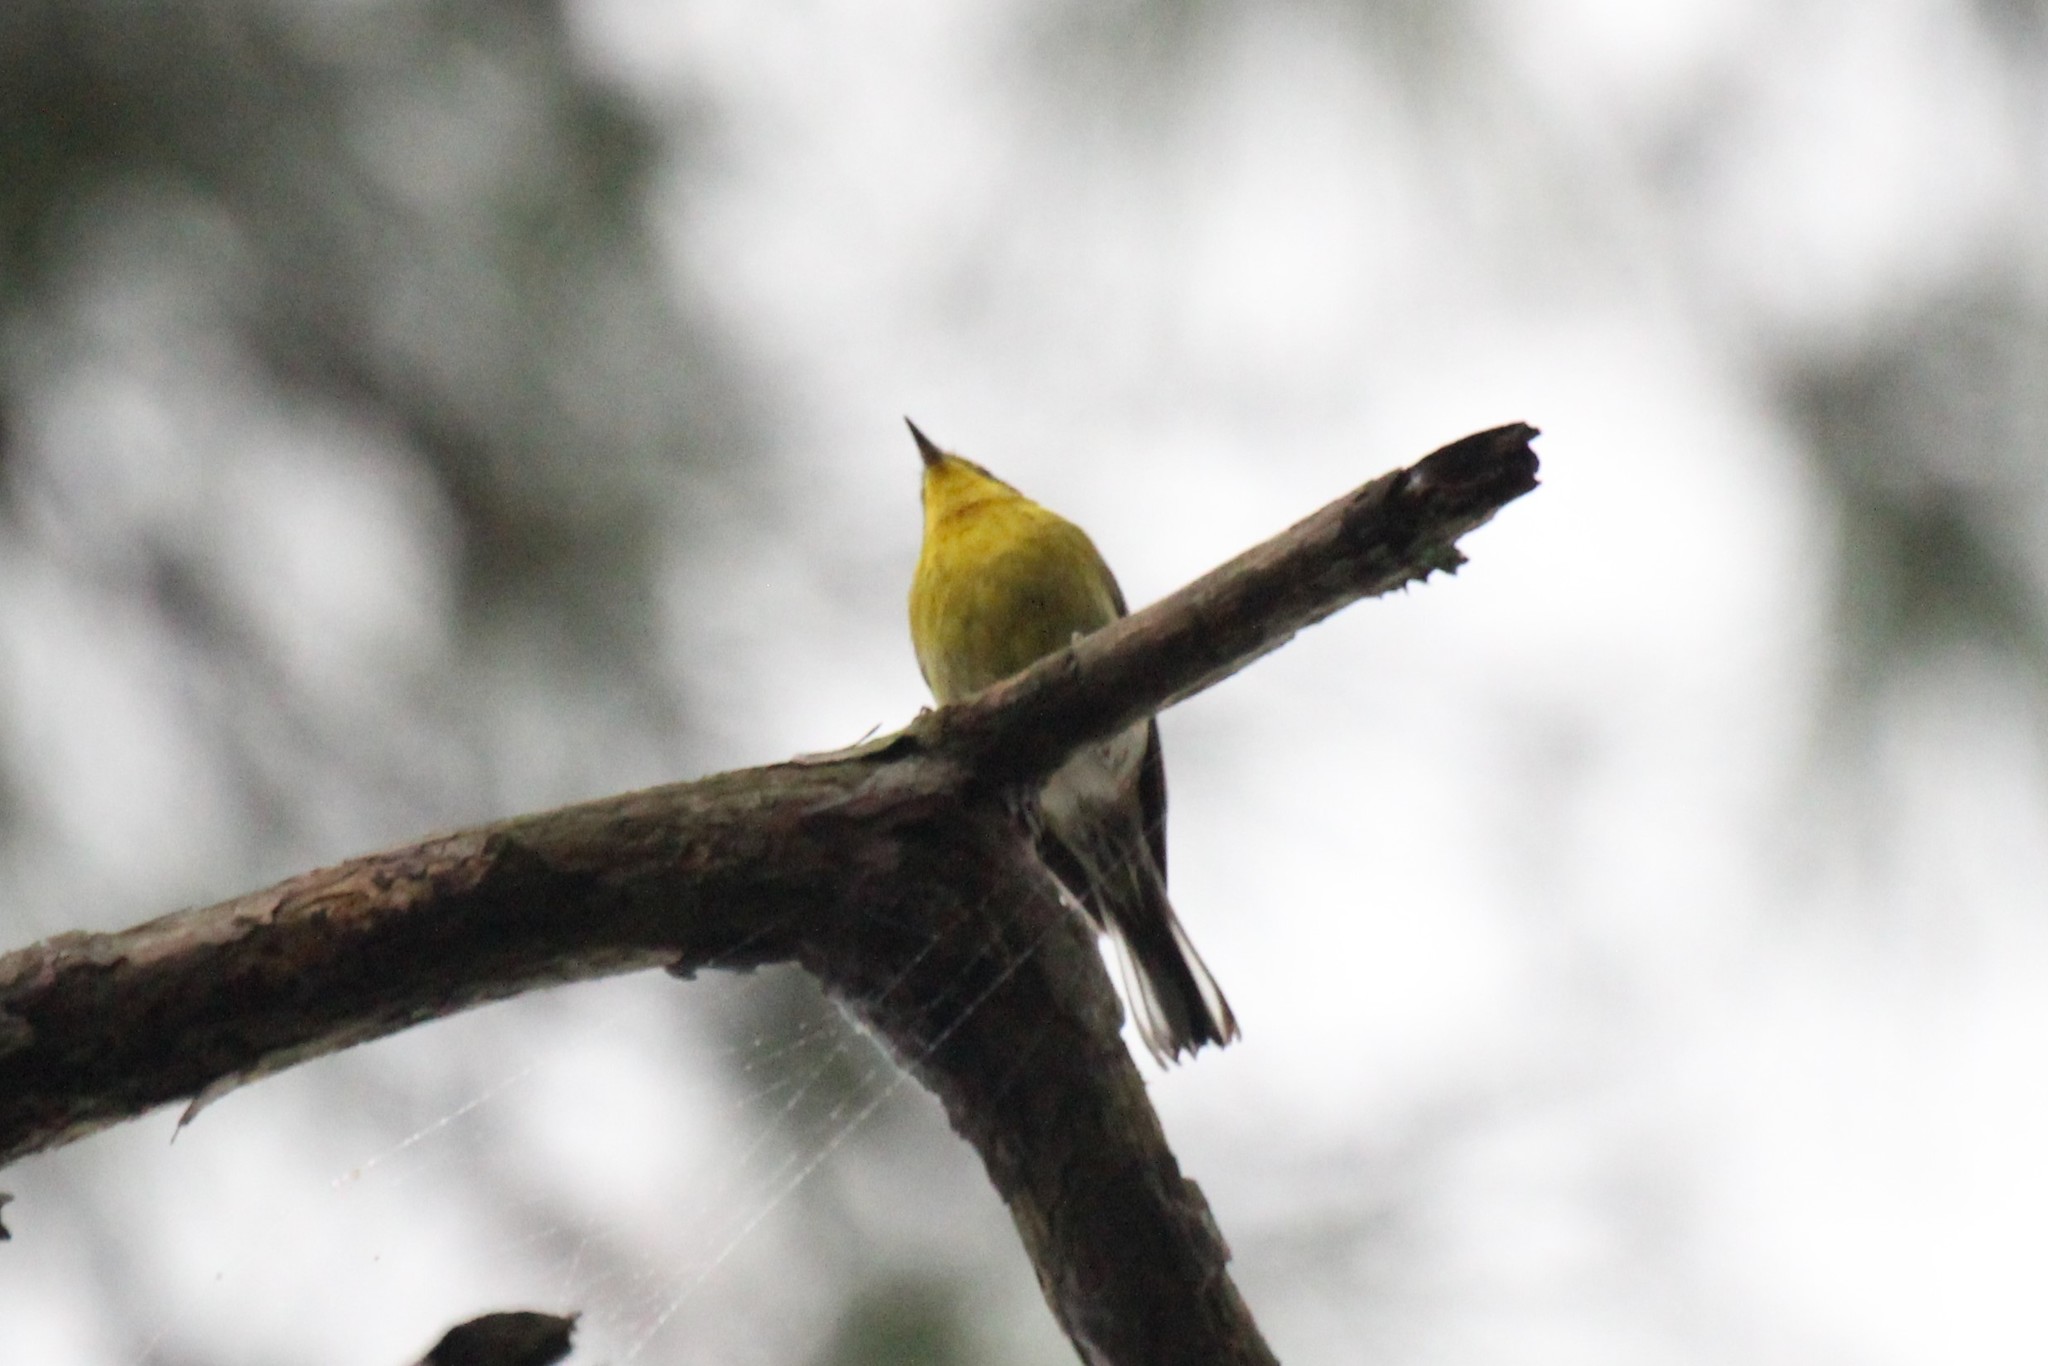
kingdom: Animalia
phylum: Chordata
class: Aves
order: Passeriformes
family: Parulidae
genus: Setophaga
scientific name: Setophaga pinus
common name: Pine warbler
